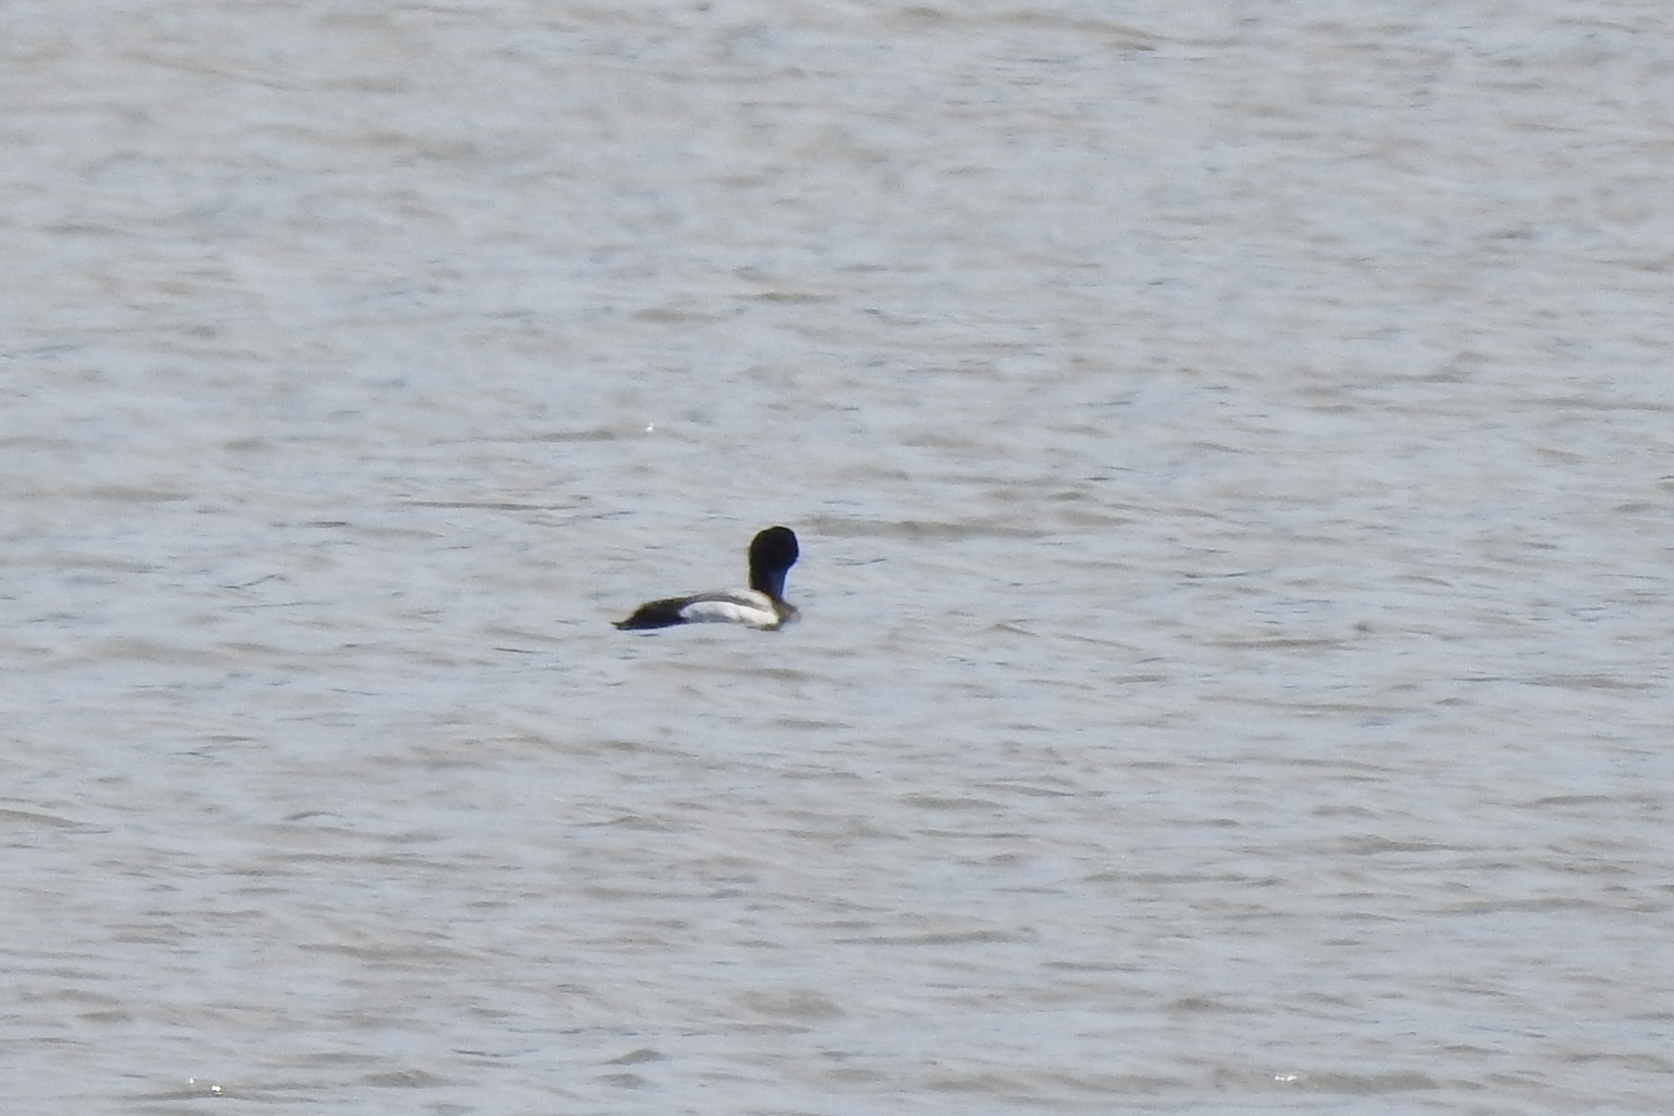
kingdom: Animalia
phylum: Chordata
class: Aves
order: Anseriformes
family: Anatidae
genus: Aythya
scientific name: Aythya
